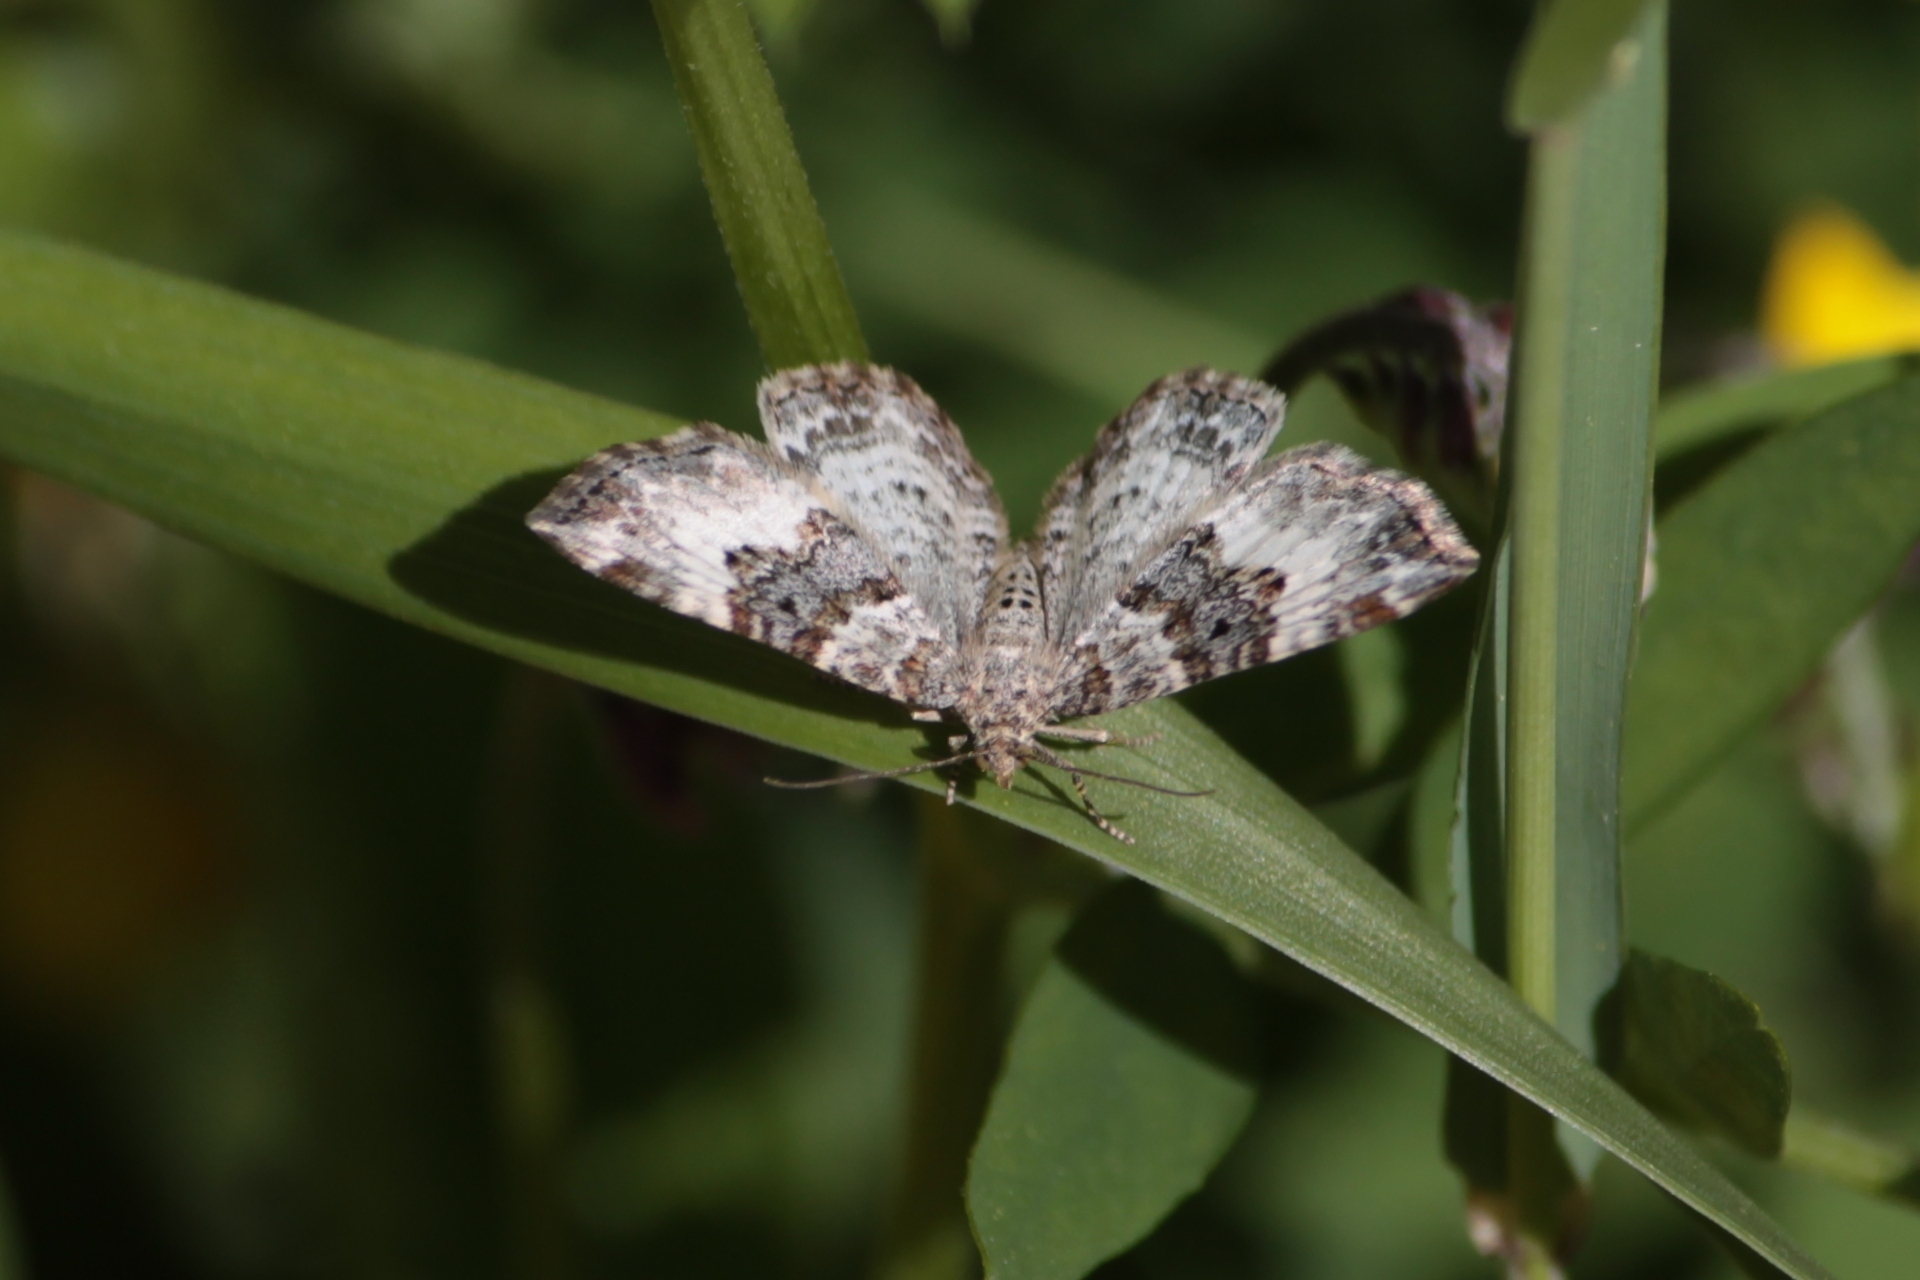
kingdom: Animalia
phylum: Arthropoda
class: Insecta
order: Lepidoptera
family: Geometridae
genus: Epirrhoe
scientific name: Epirrhoe alternata
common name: Common carpet
